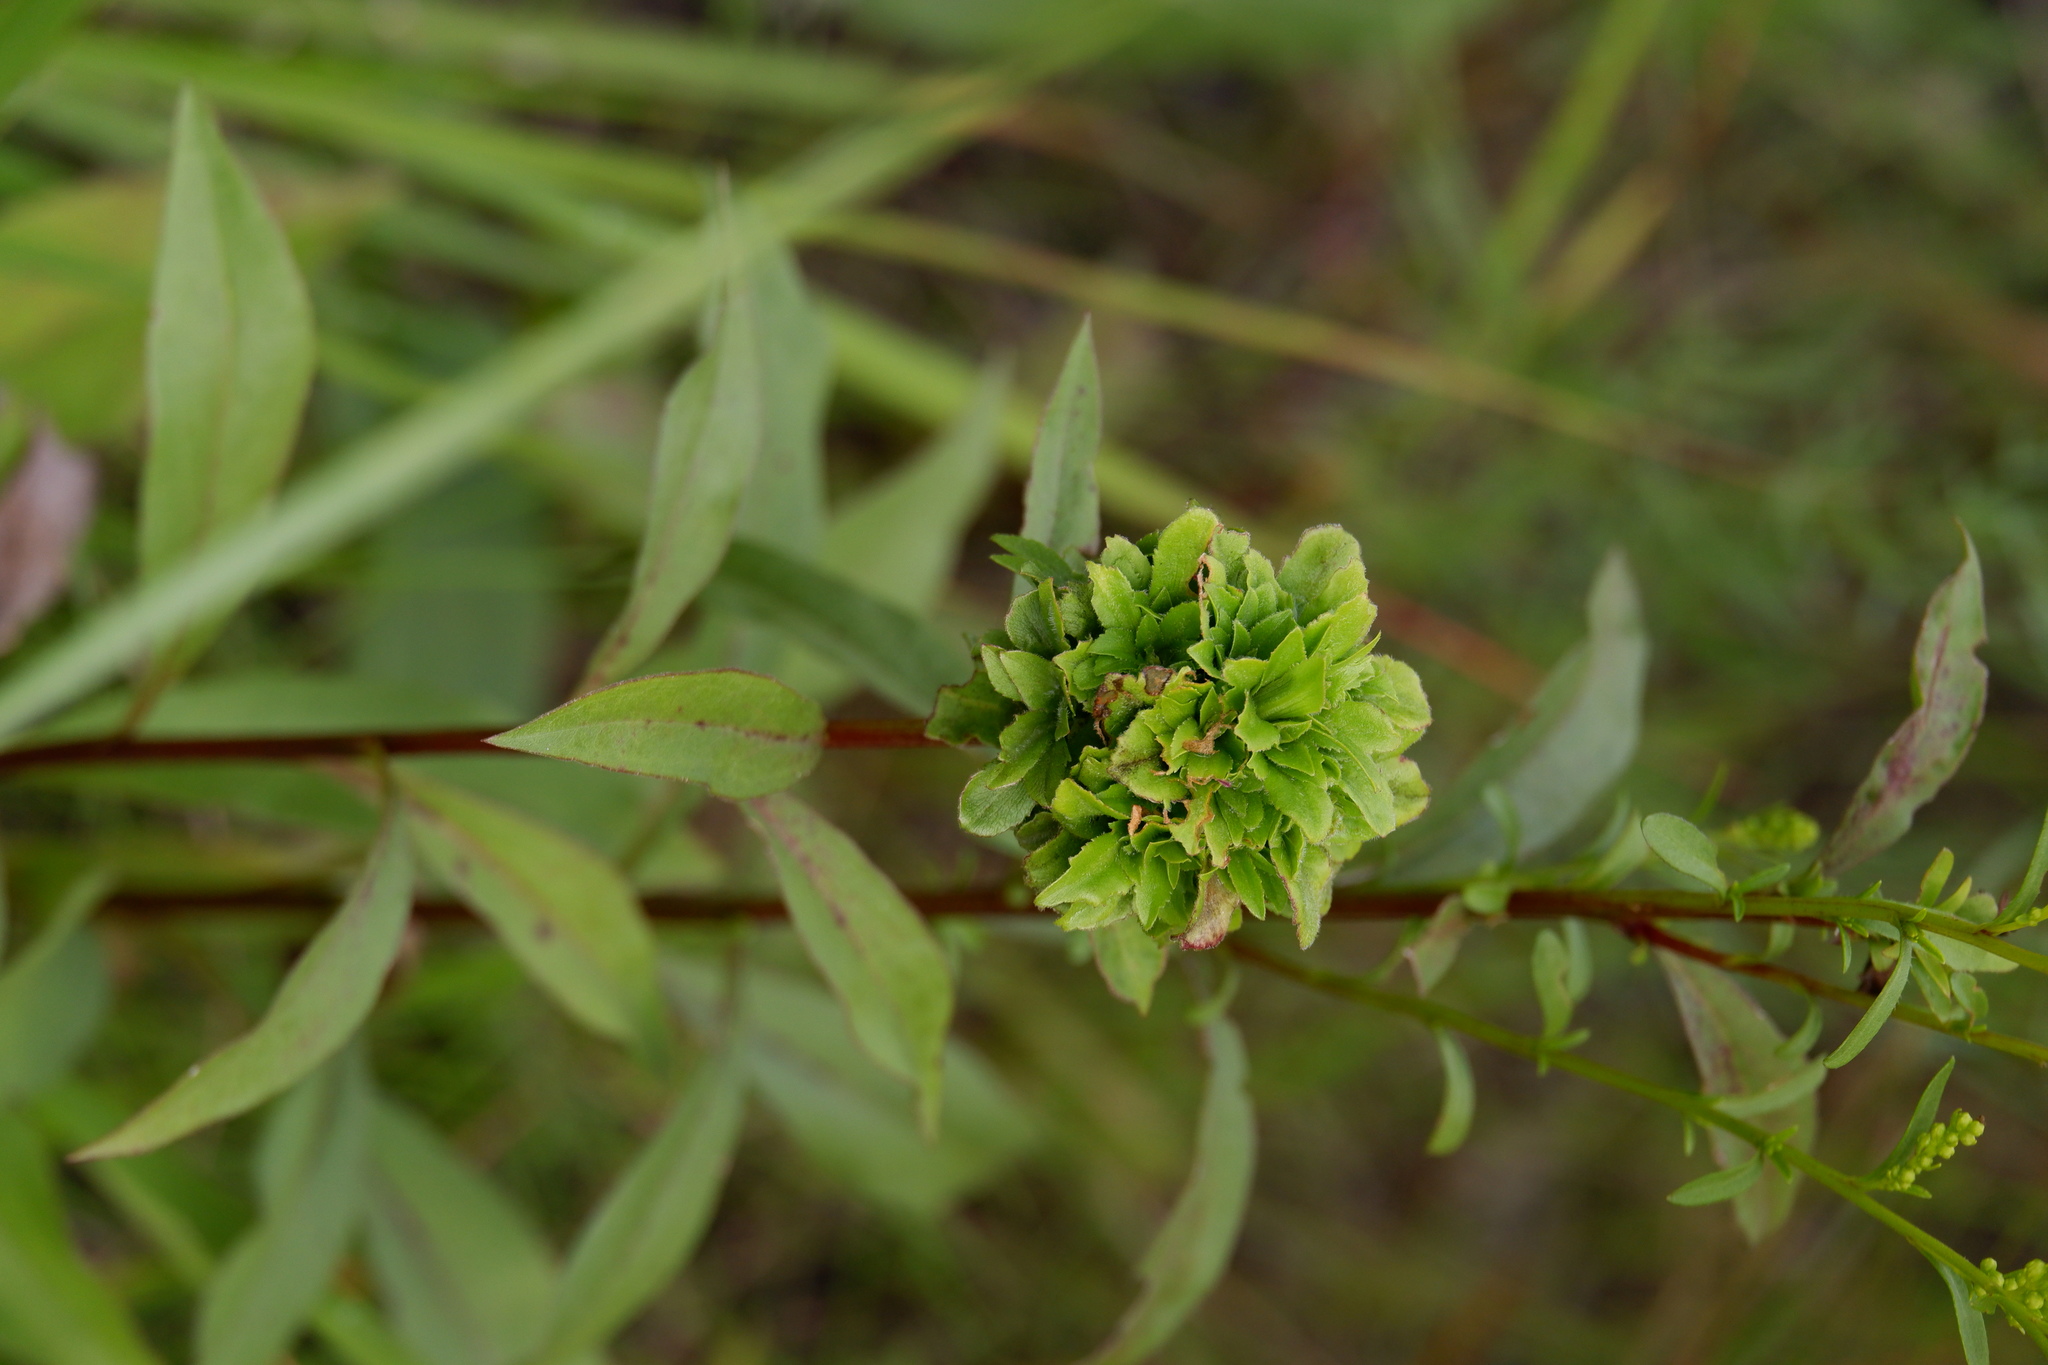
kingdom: Animalia
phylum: Arthropoda
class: Insecta
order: Diptera
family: Cecidomyiidae
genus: Asphondylia
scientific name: Asphondylia monacha
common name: Nun midge
